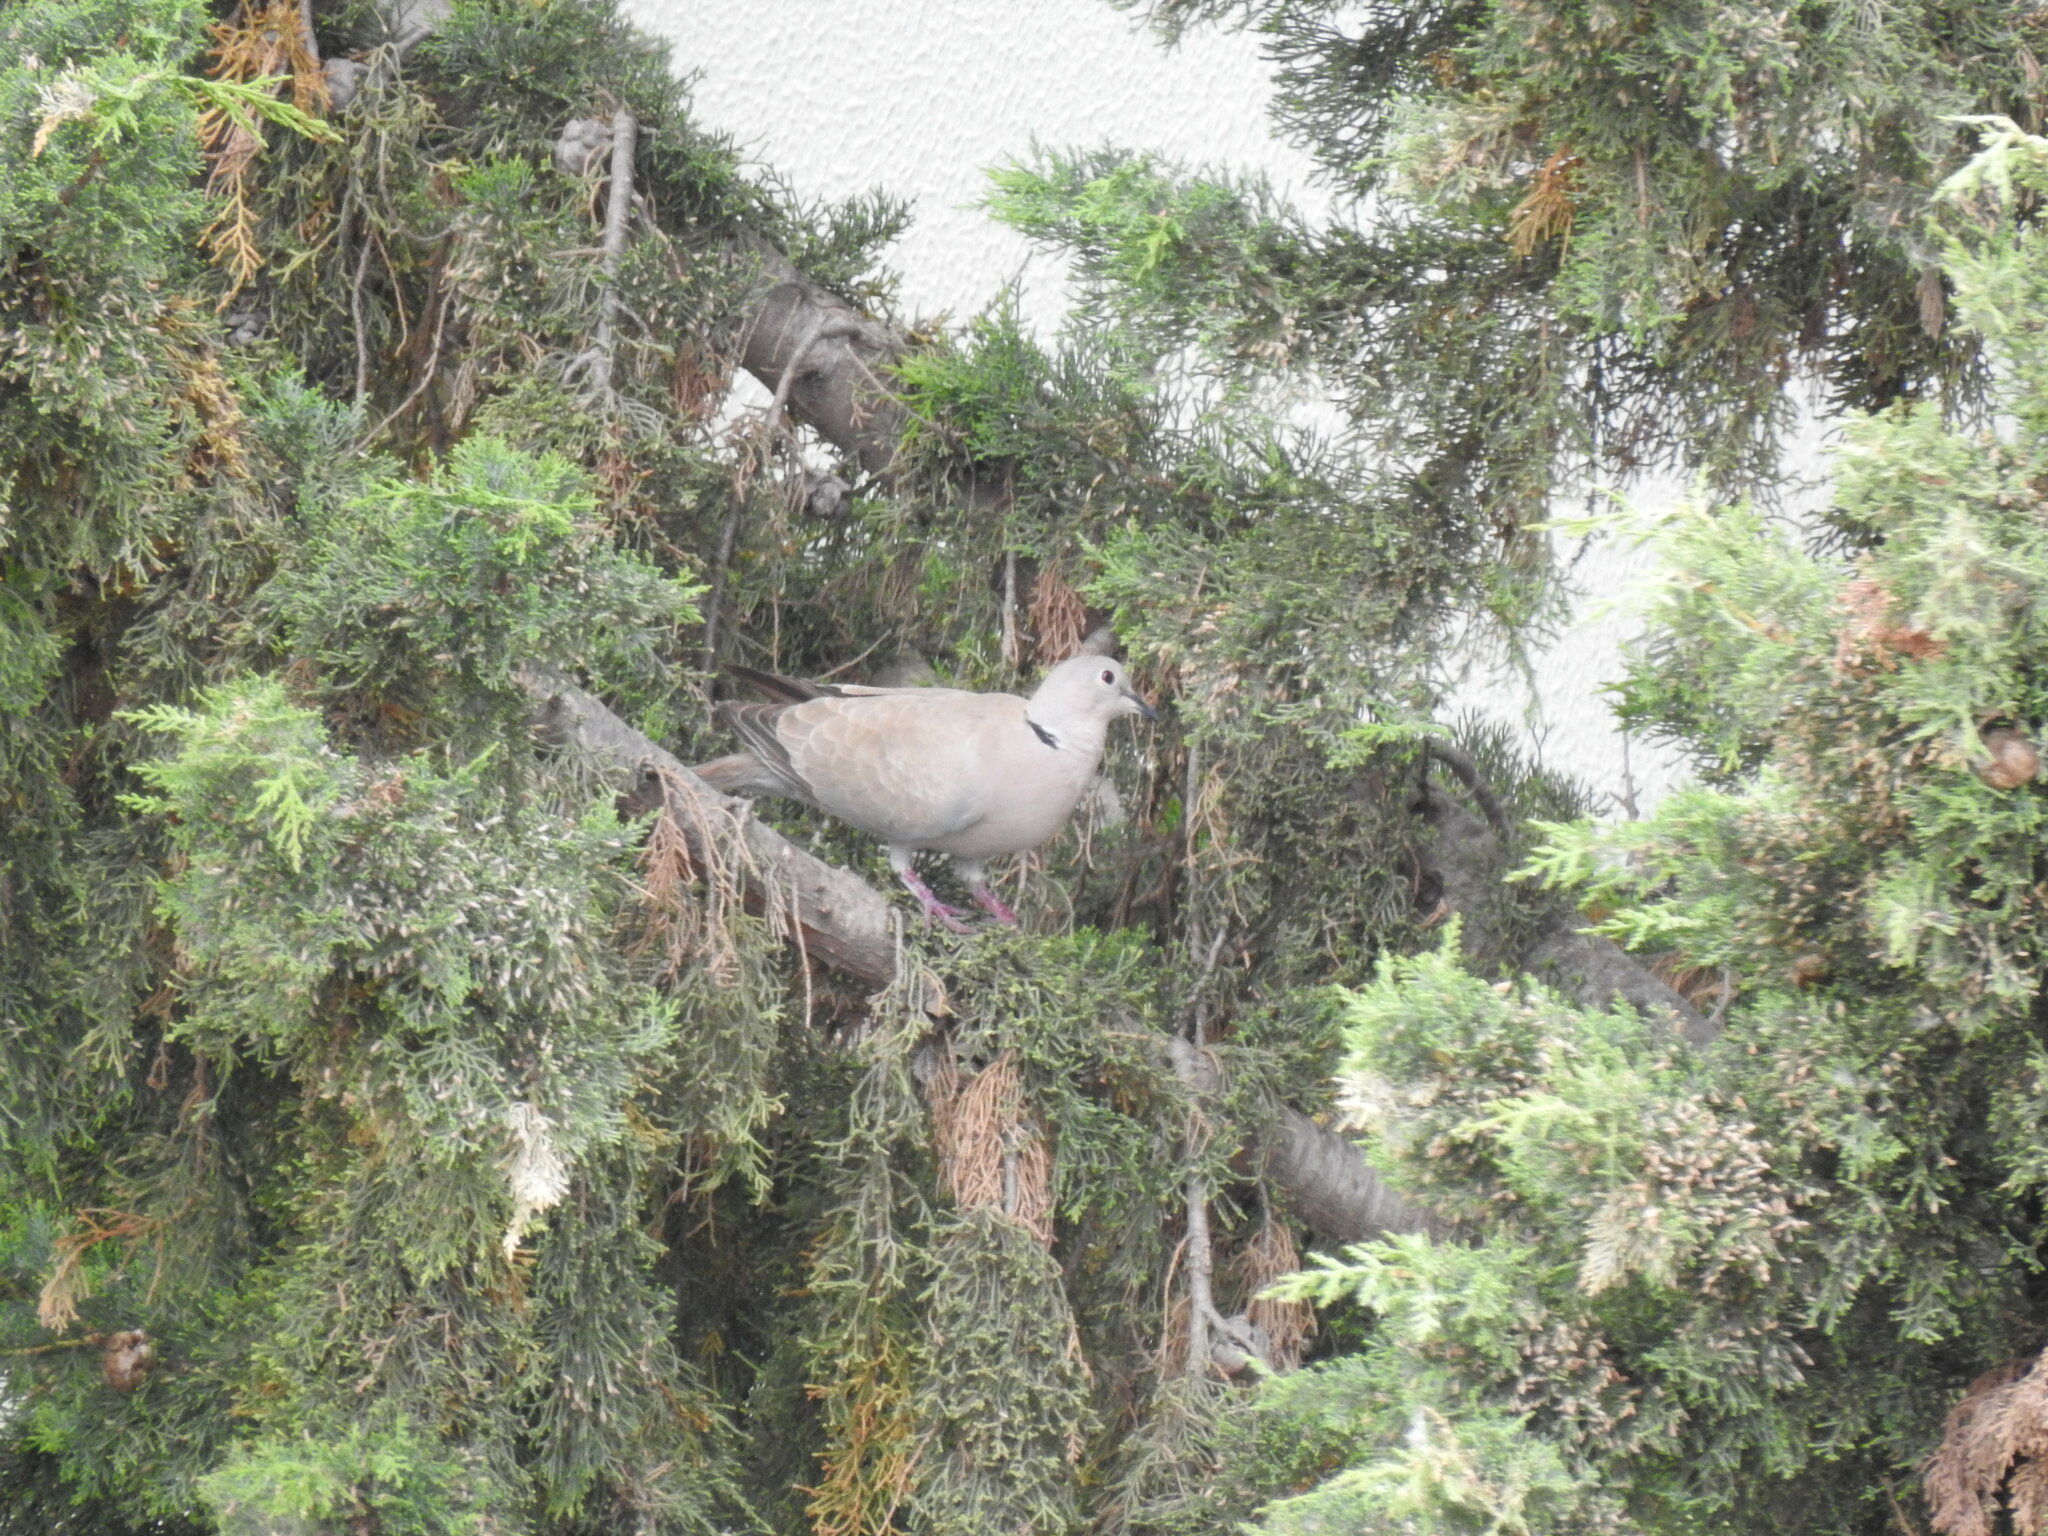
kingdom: Animalia
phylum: Chordata
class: Aves
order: Columbiformes
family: Columbidae
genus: Streptopelia
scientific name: Streptopelia decaocto
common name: Eurasian collared dove
